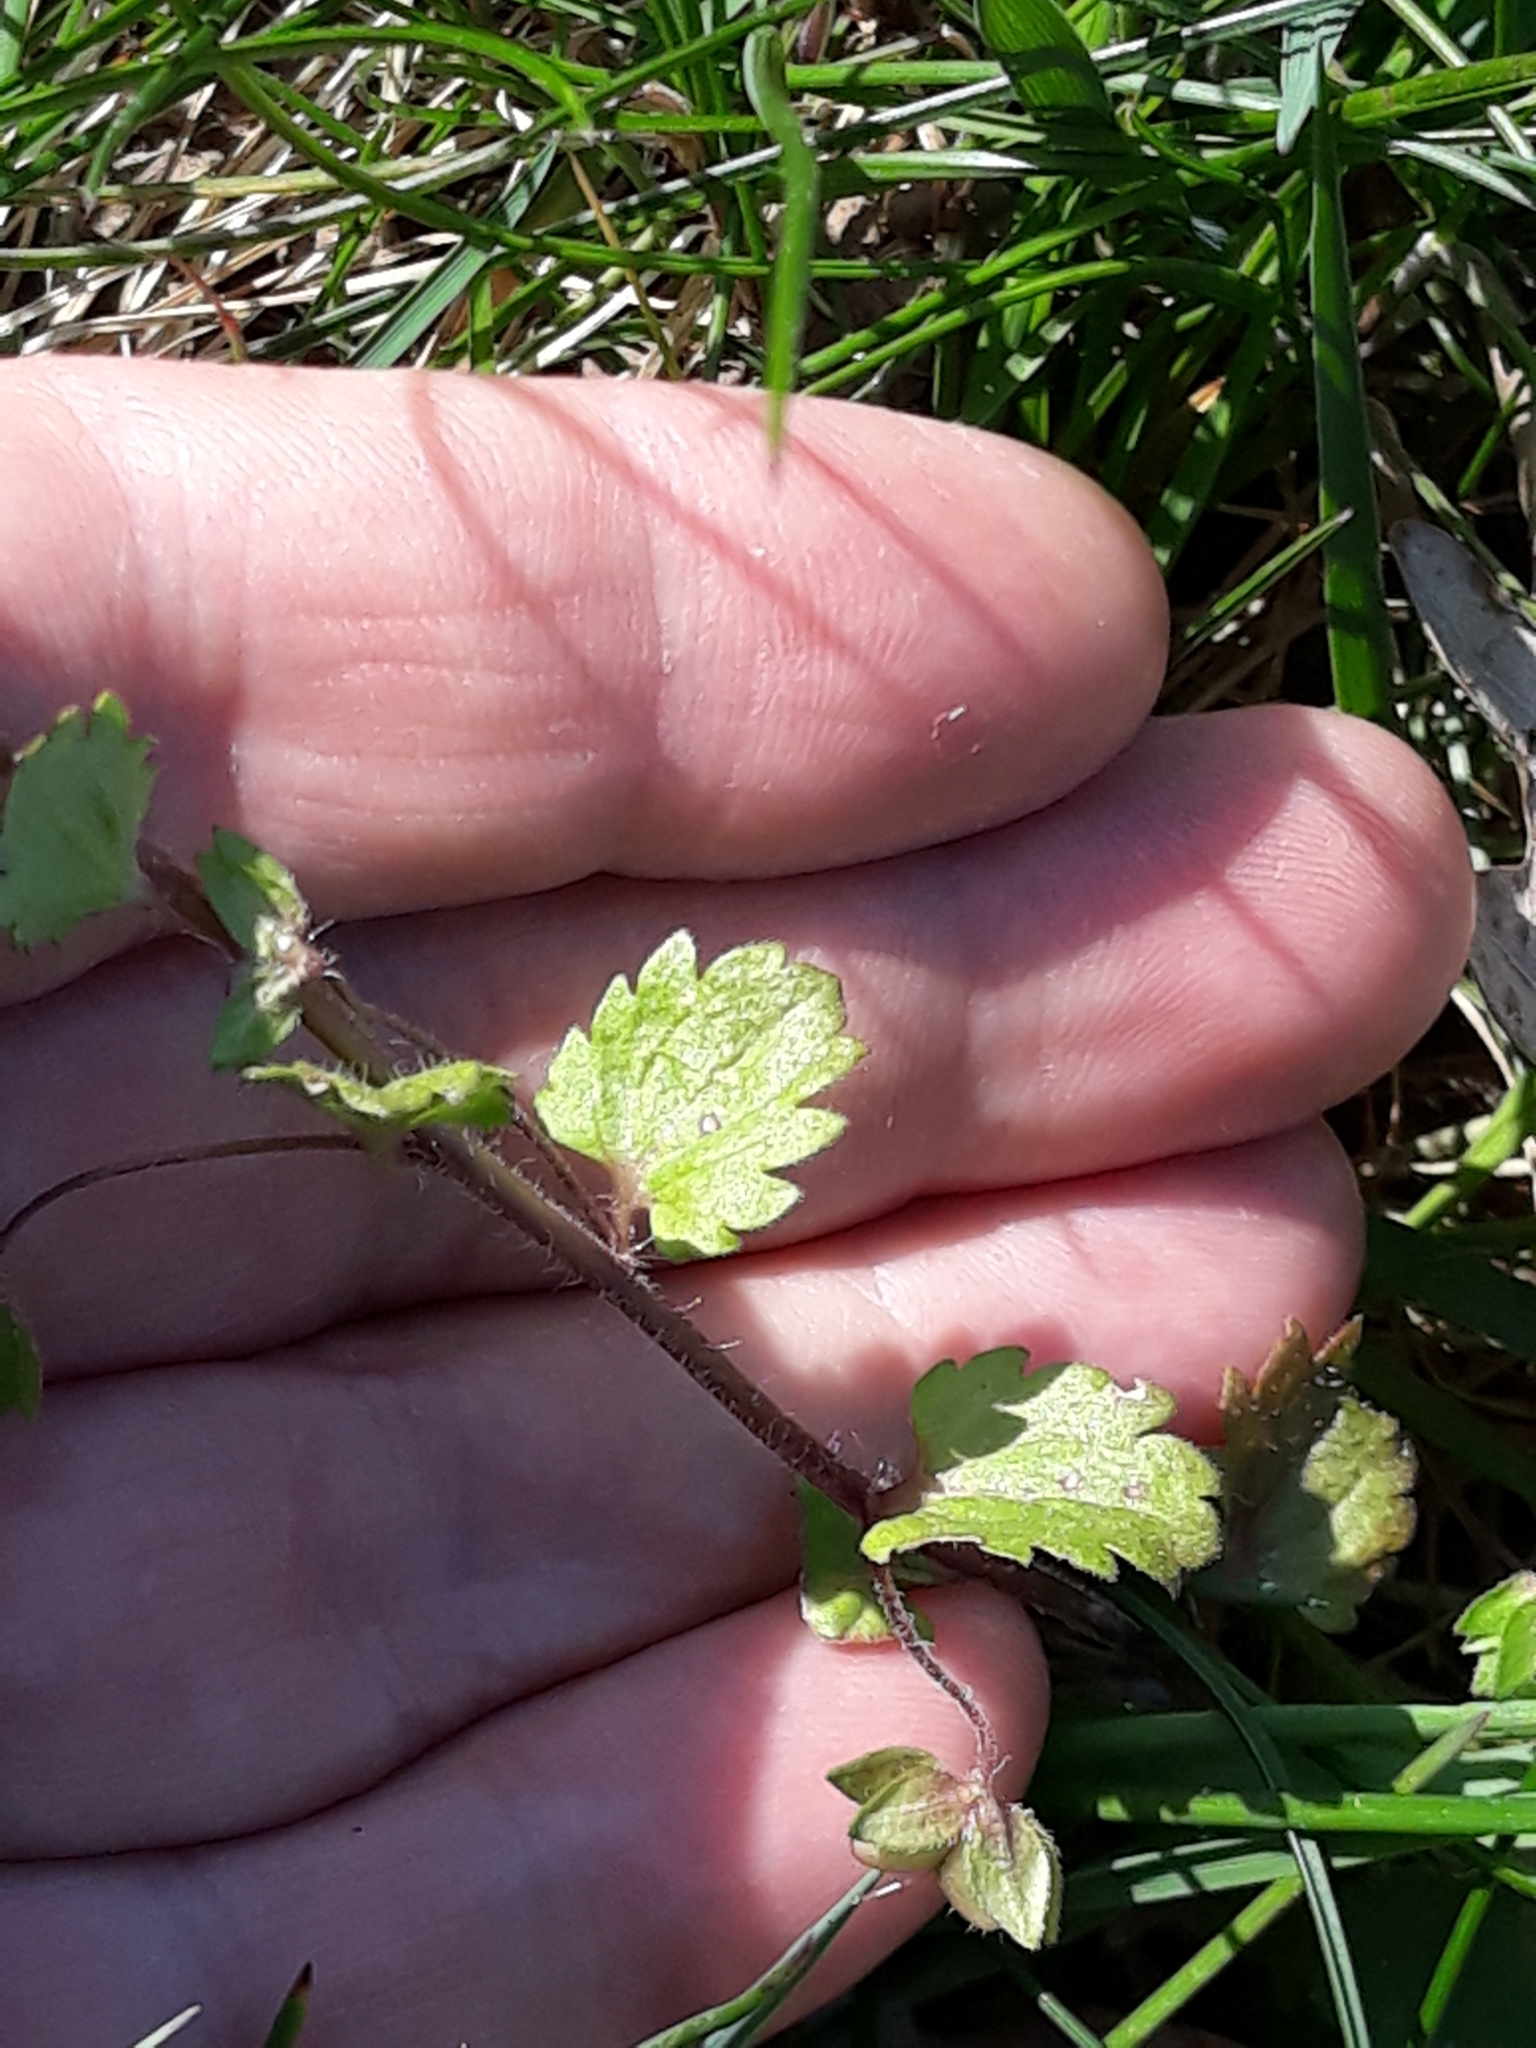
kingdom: Plantae
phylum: Tracheophyta
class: Magnoliopsida
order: Lamiales
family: Plantaginaceae
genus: Veronica
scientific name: Veronica persica
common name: Common field-speedwell
